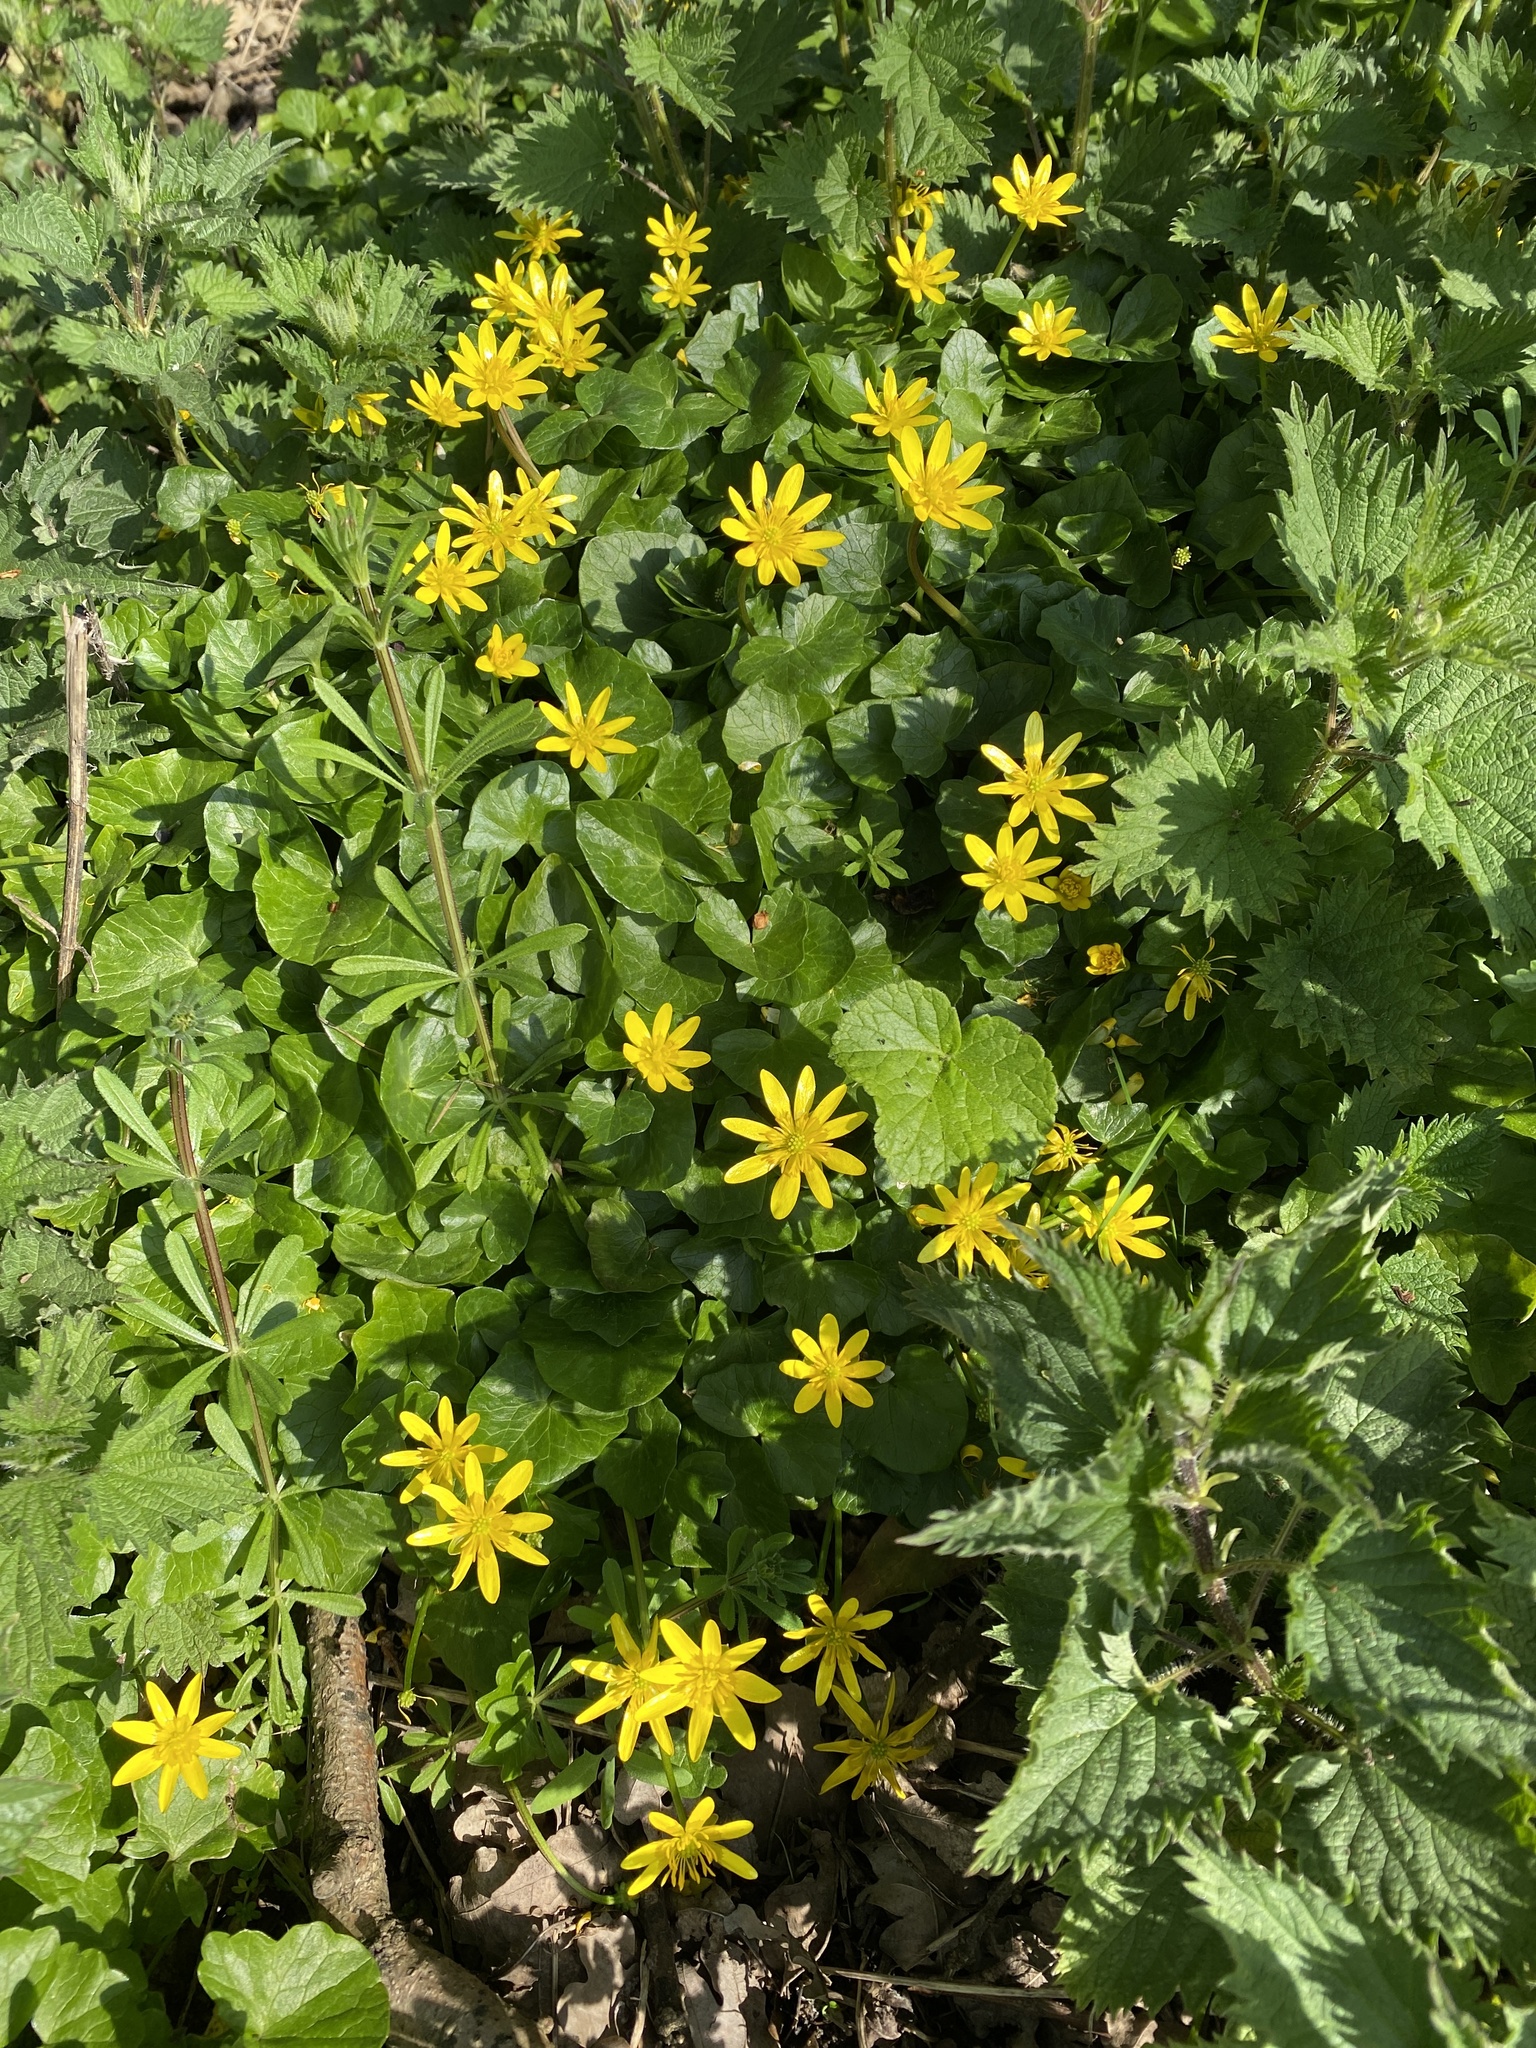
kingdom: Plantae
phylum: Tracheophyta
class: Magnoliopsida
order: Ranunculales
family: Ranunculaceae
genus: Ficaria
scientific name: Ficaria verna
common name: Lesser celandine
